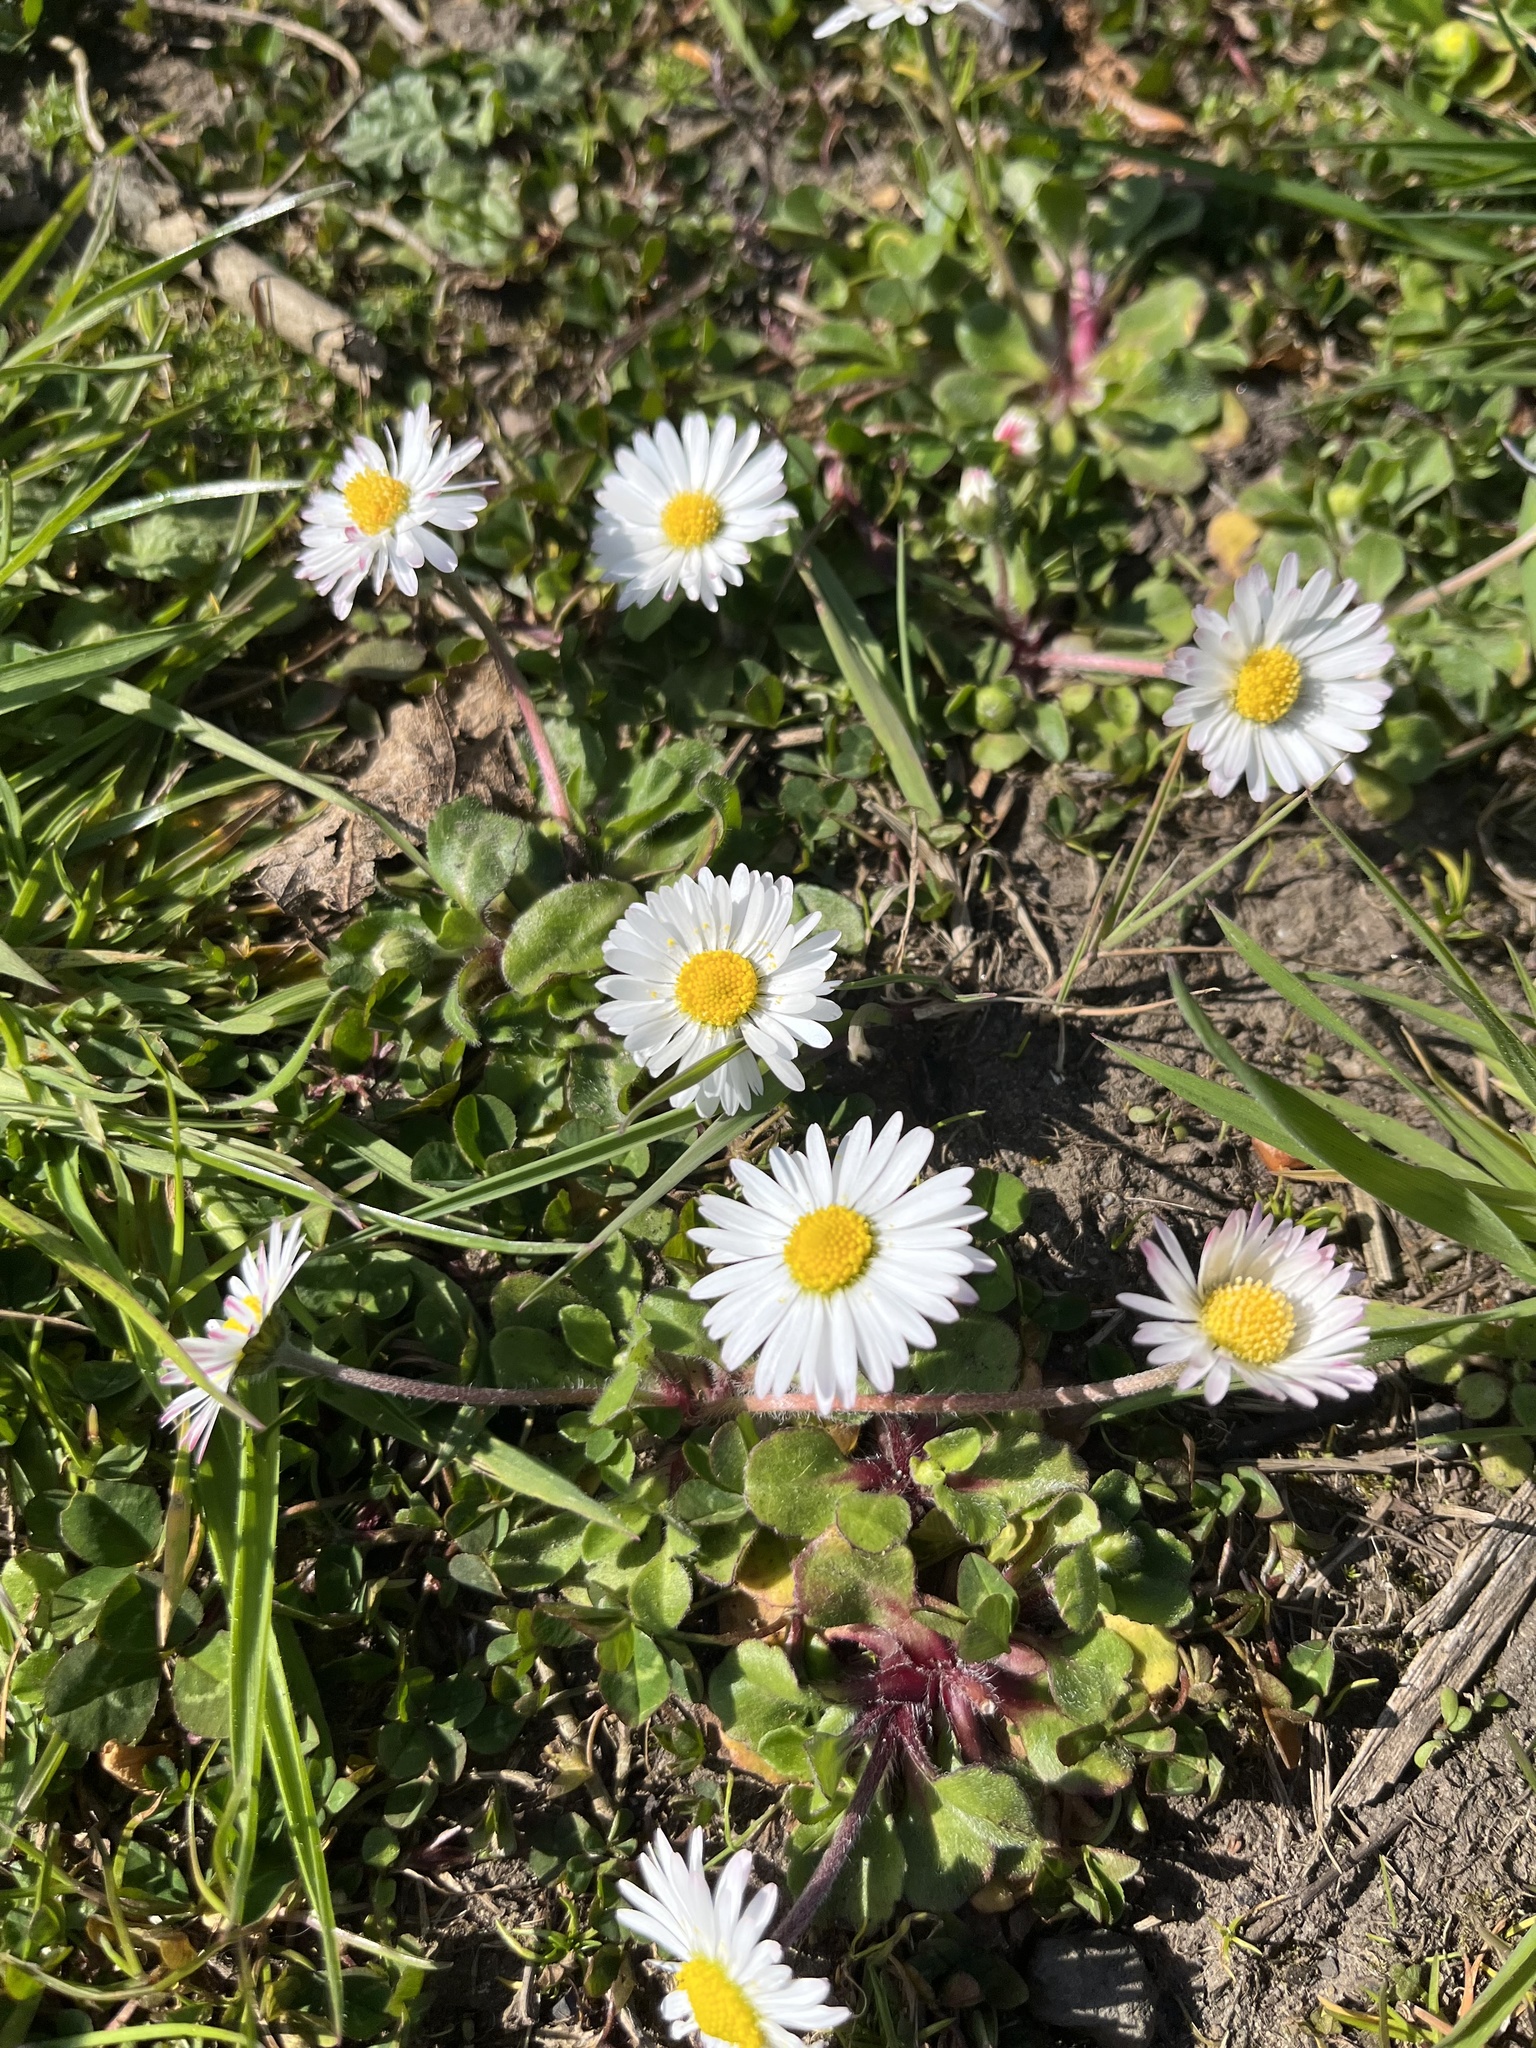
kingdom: Plantae
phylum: Tracheophyta
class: Magnoliopsida
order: Asterales
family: Asteraceae
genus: Bellis
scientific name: Bellis perennis
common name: Lawndaisy
